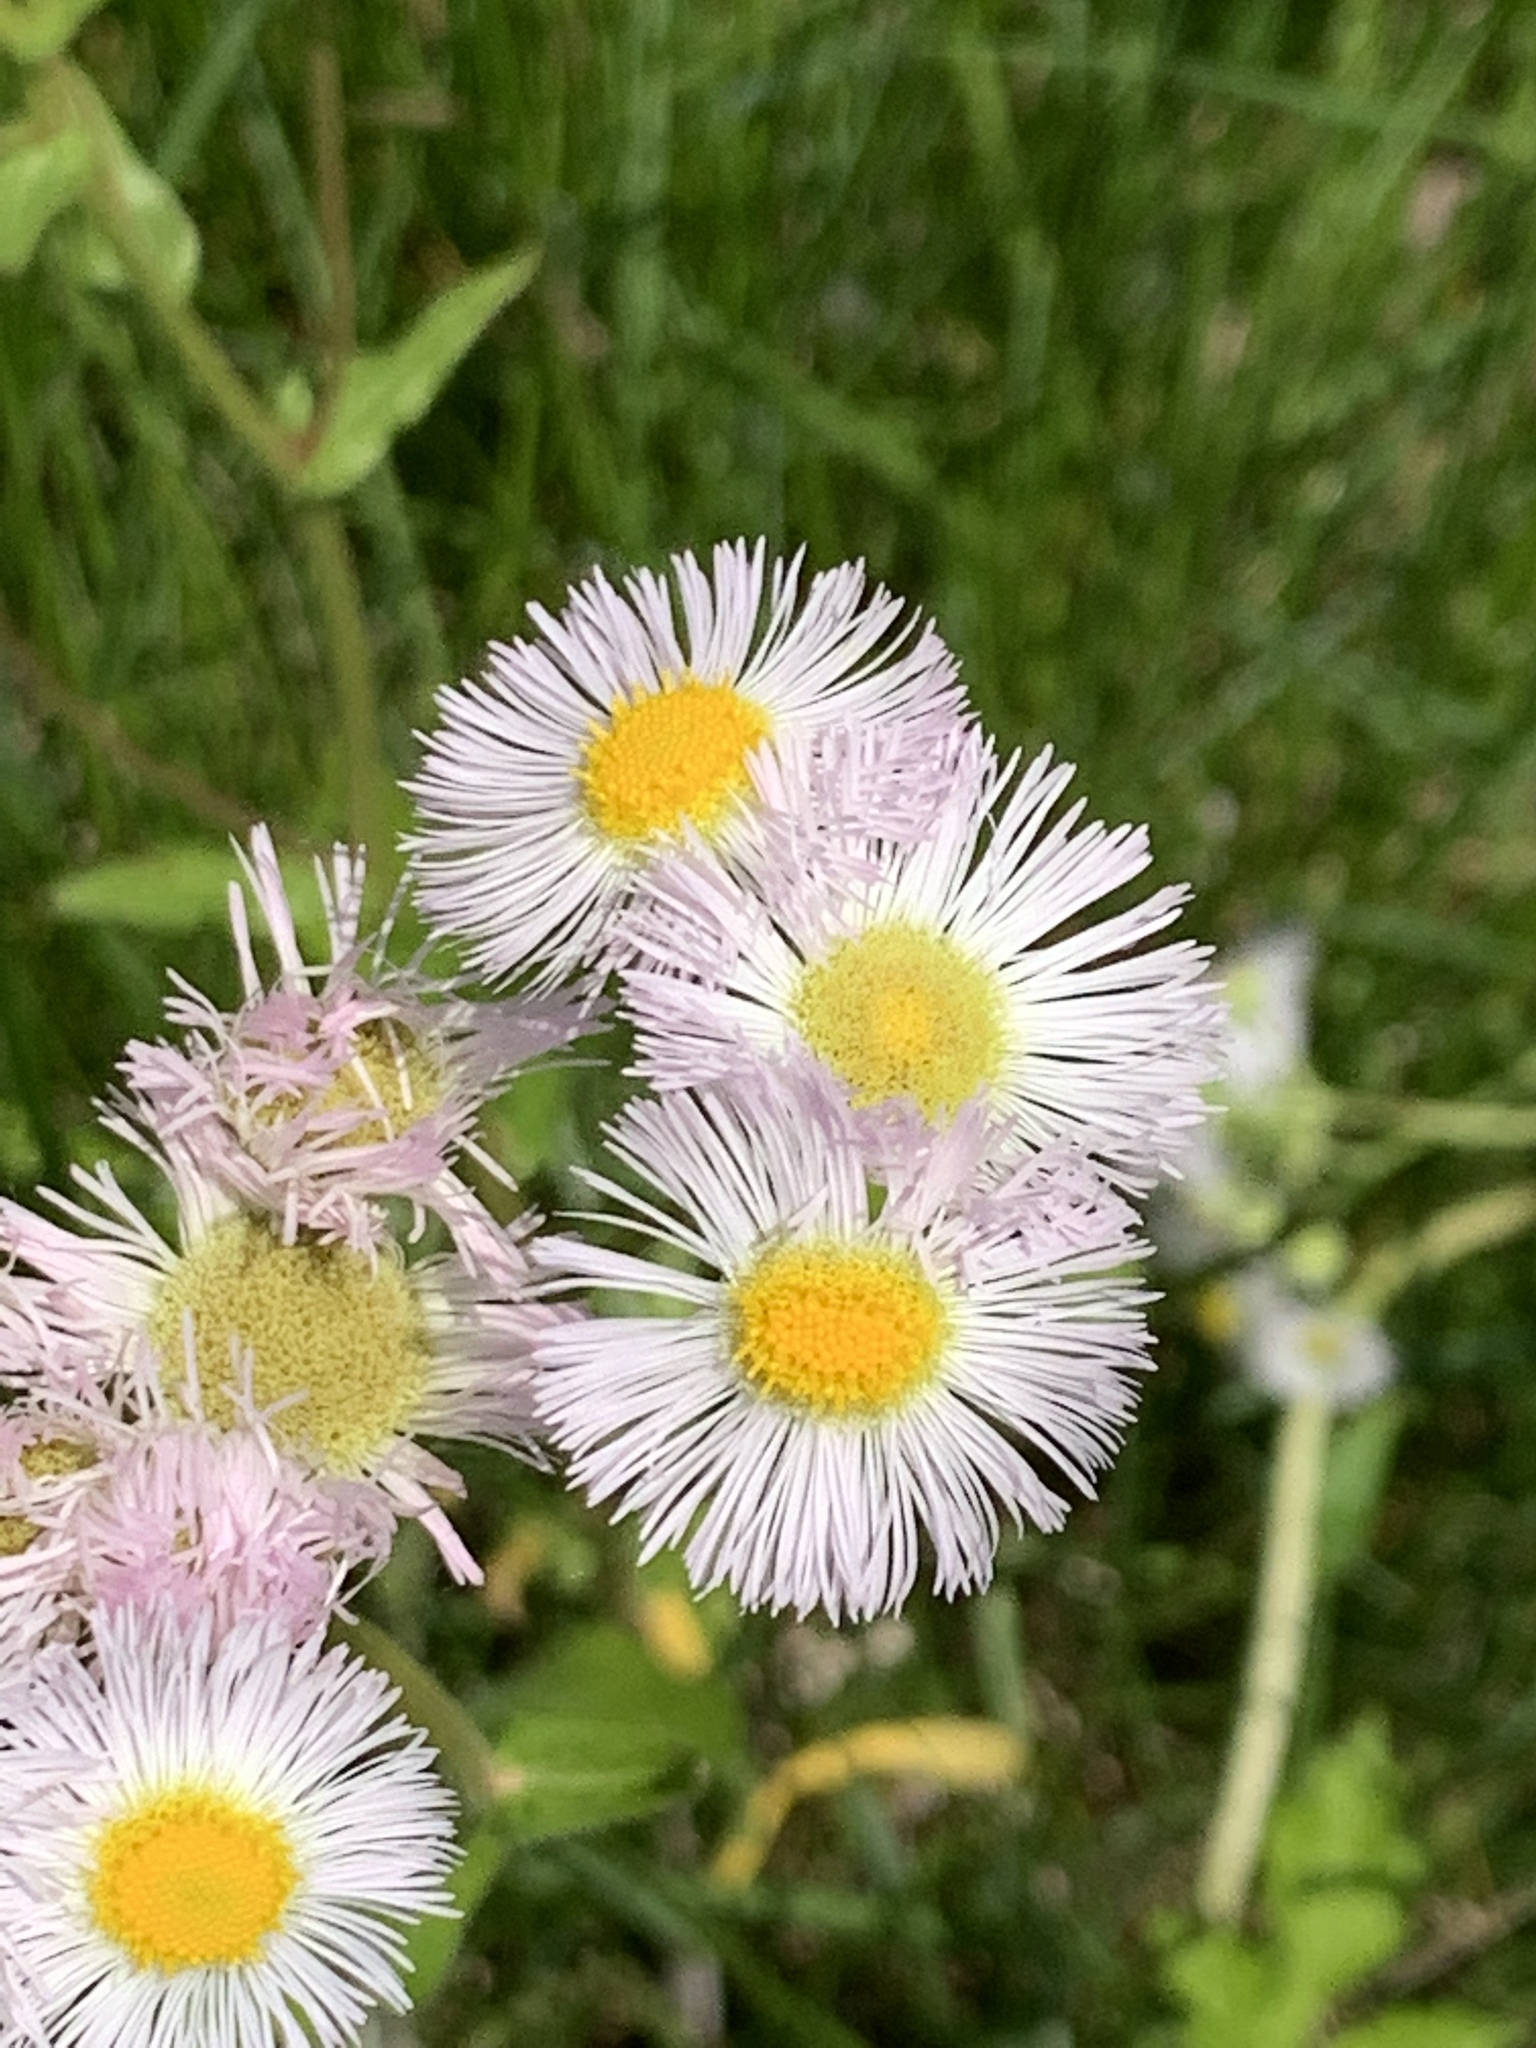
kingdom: Plantae
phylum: Tracheophyta
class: Magnoliopsida
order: Asterales
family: Asteraceae
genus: Erigeron
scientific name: Erigeron philadelphicus
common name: Robin's-plantain
